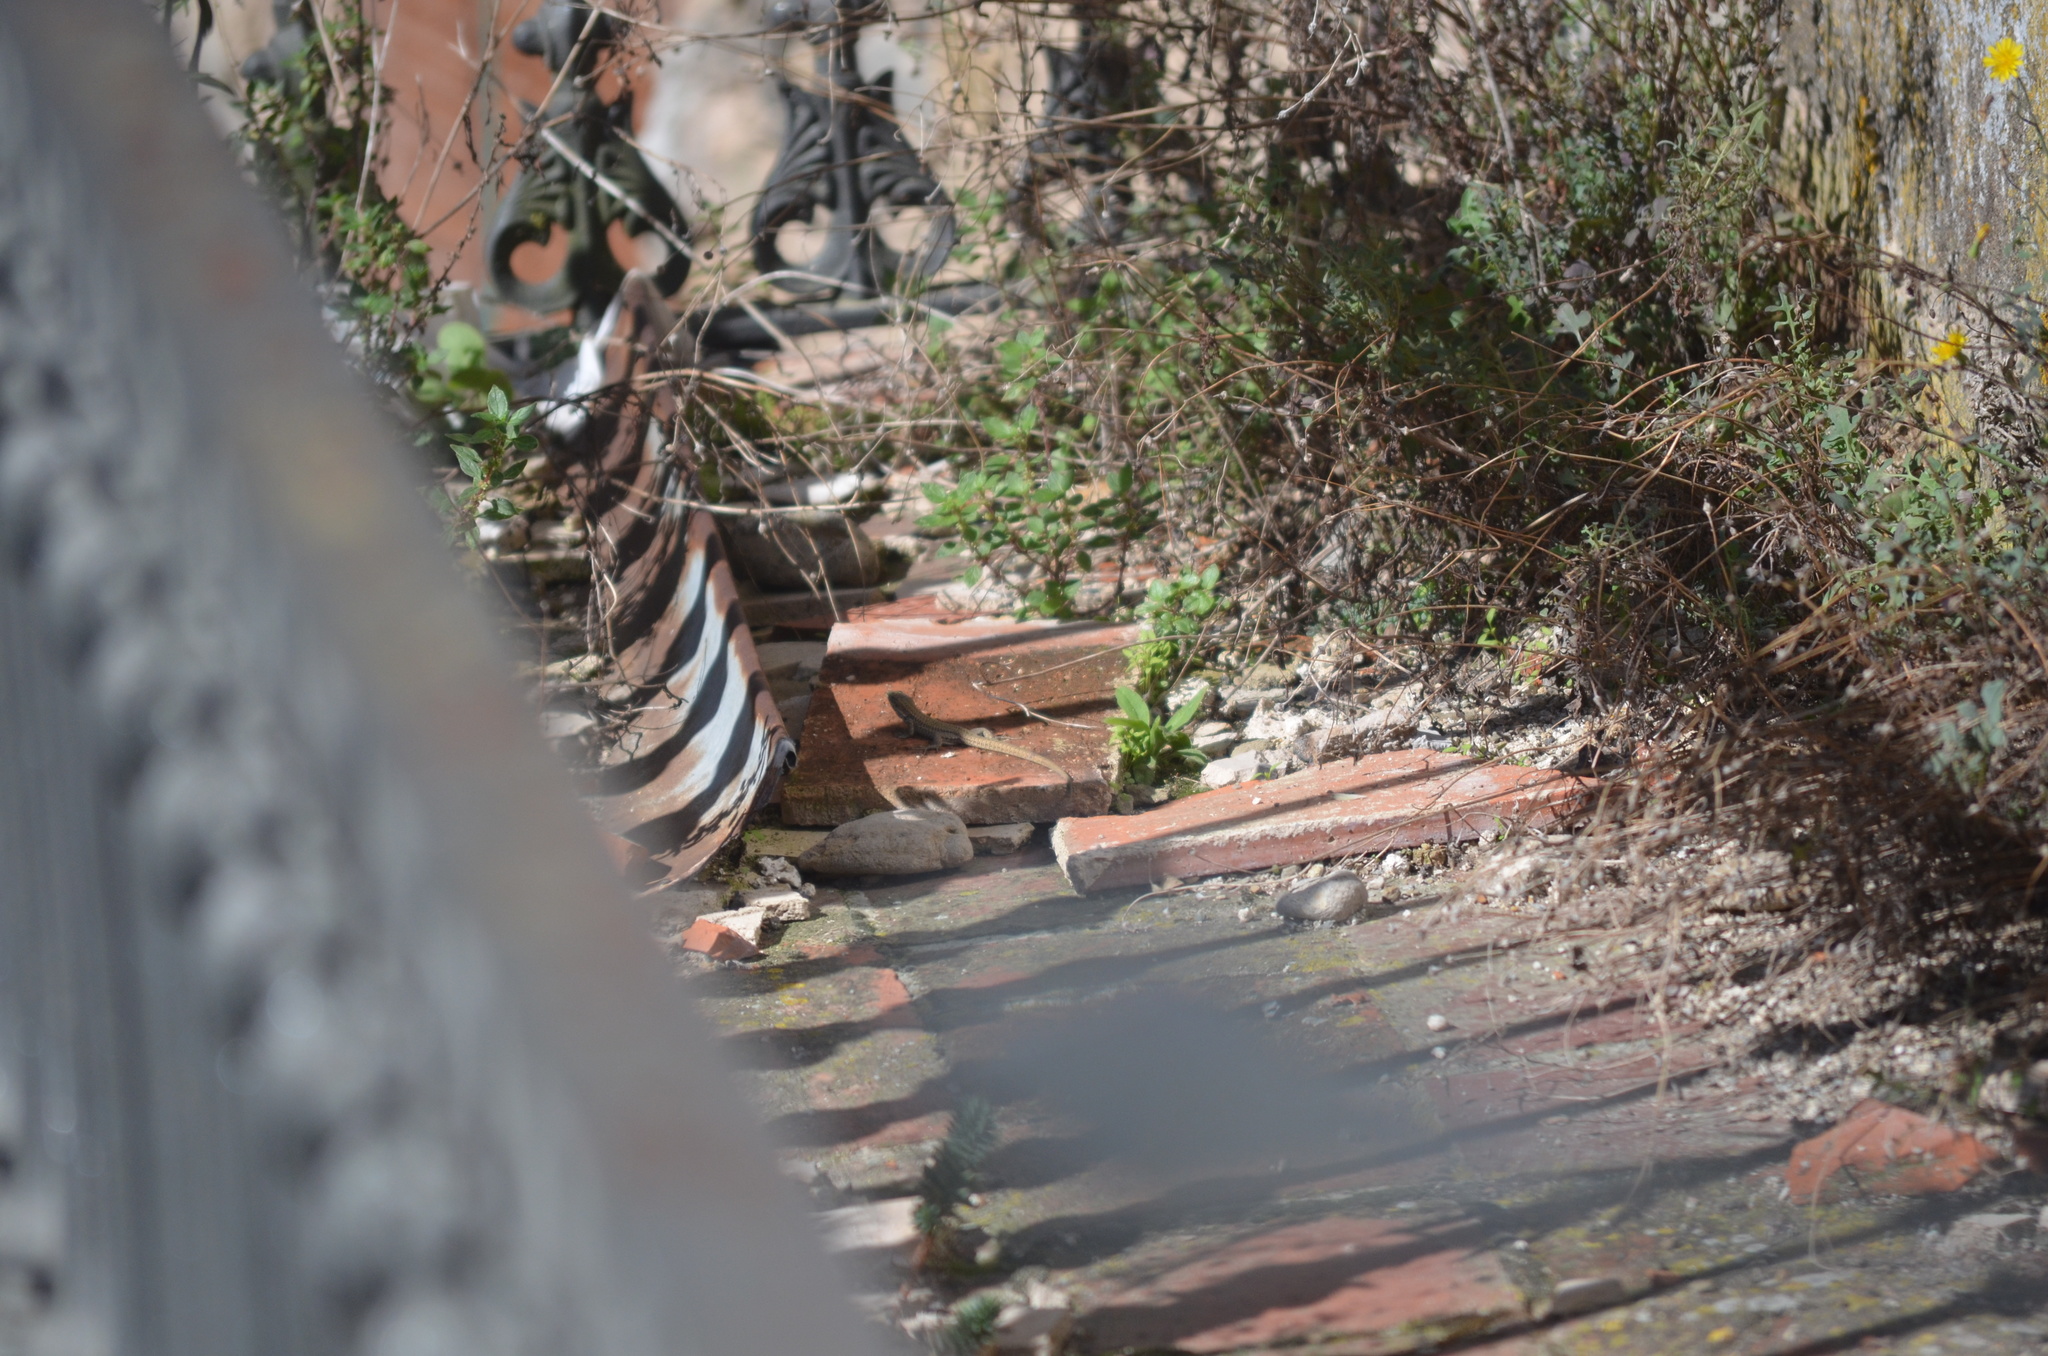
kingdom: Animalia
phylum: Chordata
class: Squamata
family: Lacertidae
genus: Podarcis
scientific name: Podarcis liolepis
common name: Catalonian wall lizard
